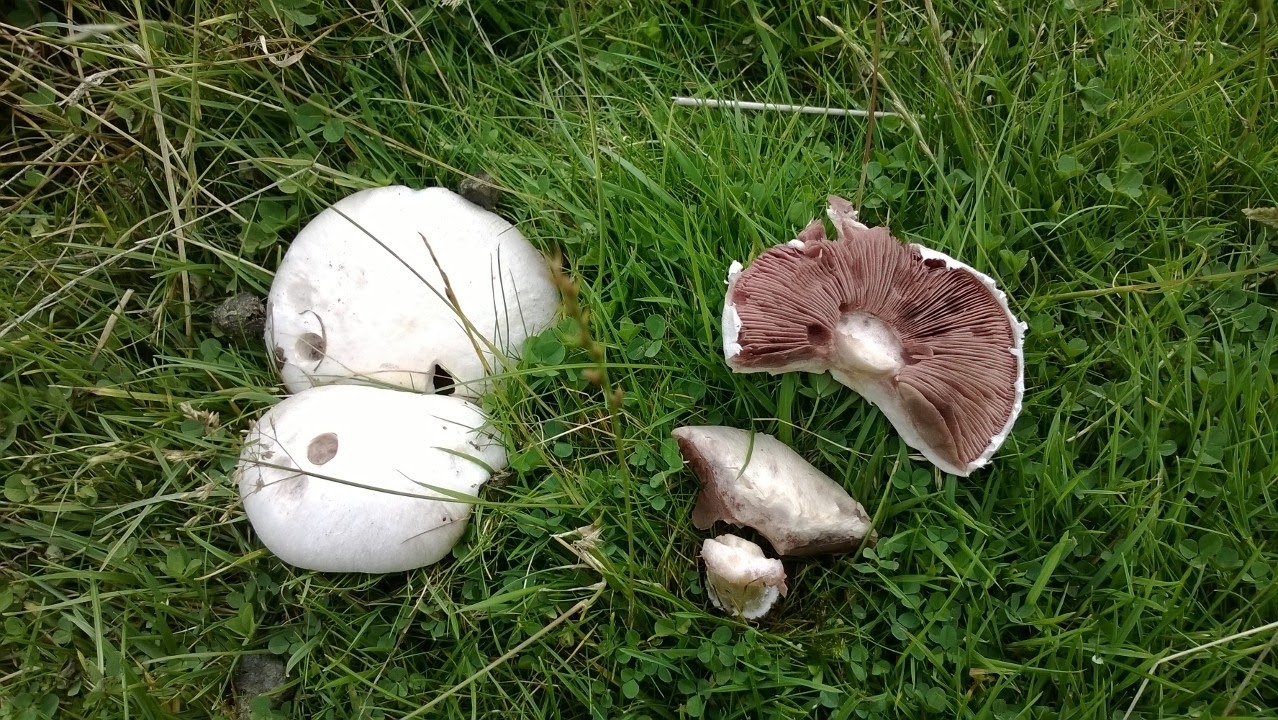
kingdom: Fungi
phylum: Basidiomycota
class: Agaricomycetes
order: Agaricales
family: Agaricaceae
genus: Agaricus
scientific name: Agaricus campestris
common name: Field mushroom
